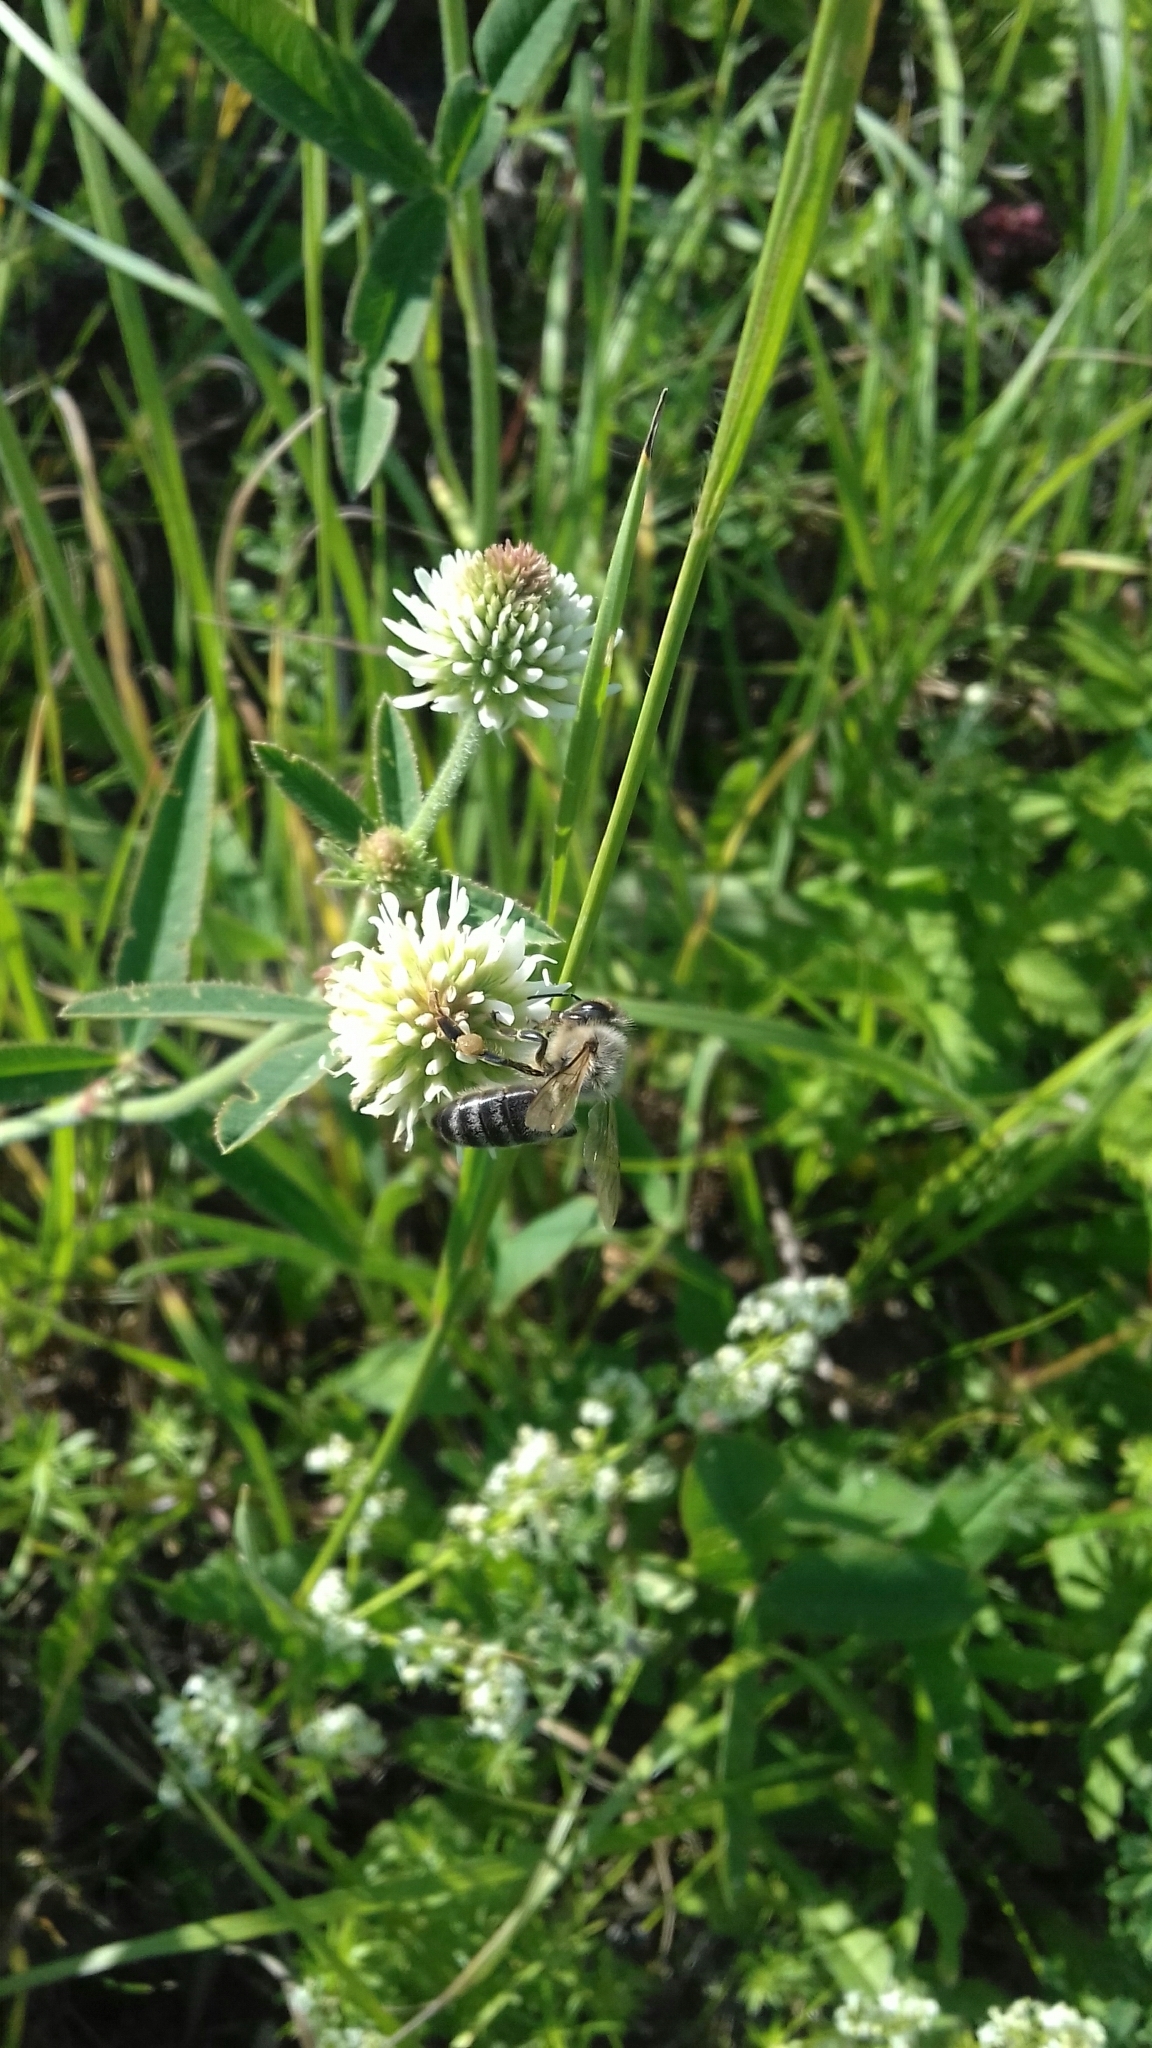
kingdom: Animalia
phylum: Arthropoda
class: Insecta
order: Hymenoptera
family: Apidae
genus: Apis
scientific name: Apis mellifera
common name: Honey bee
